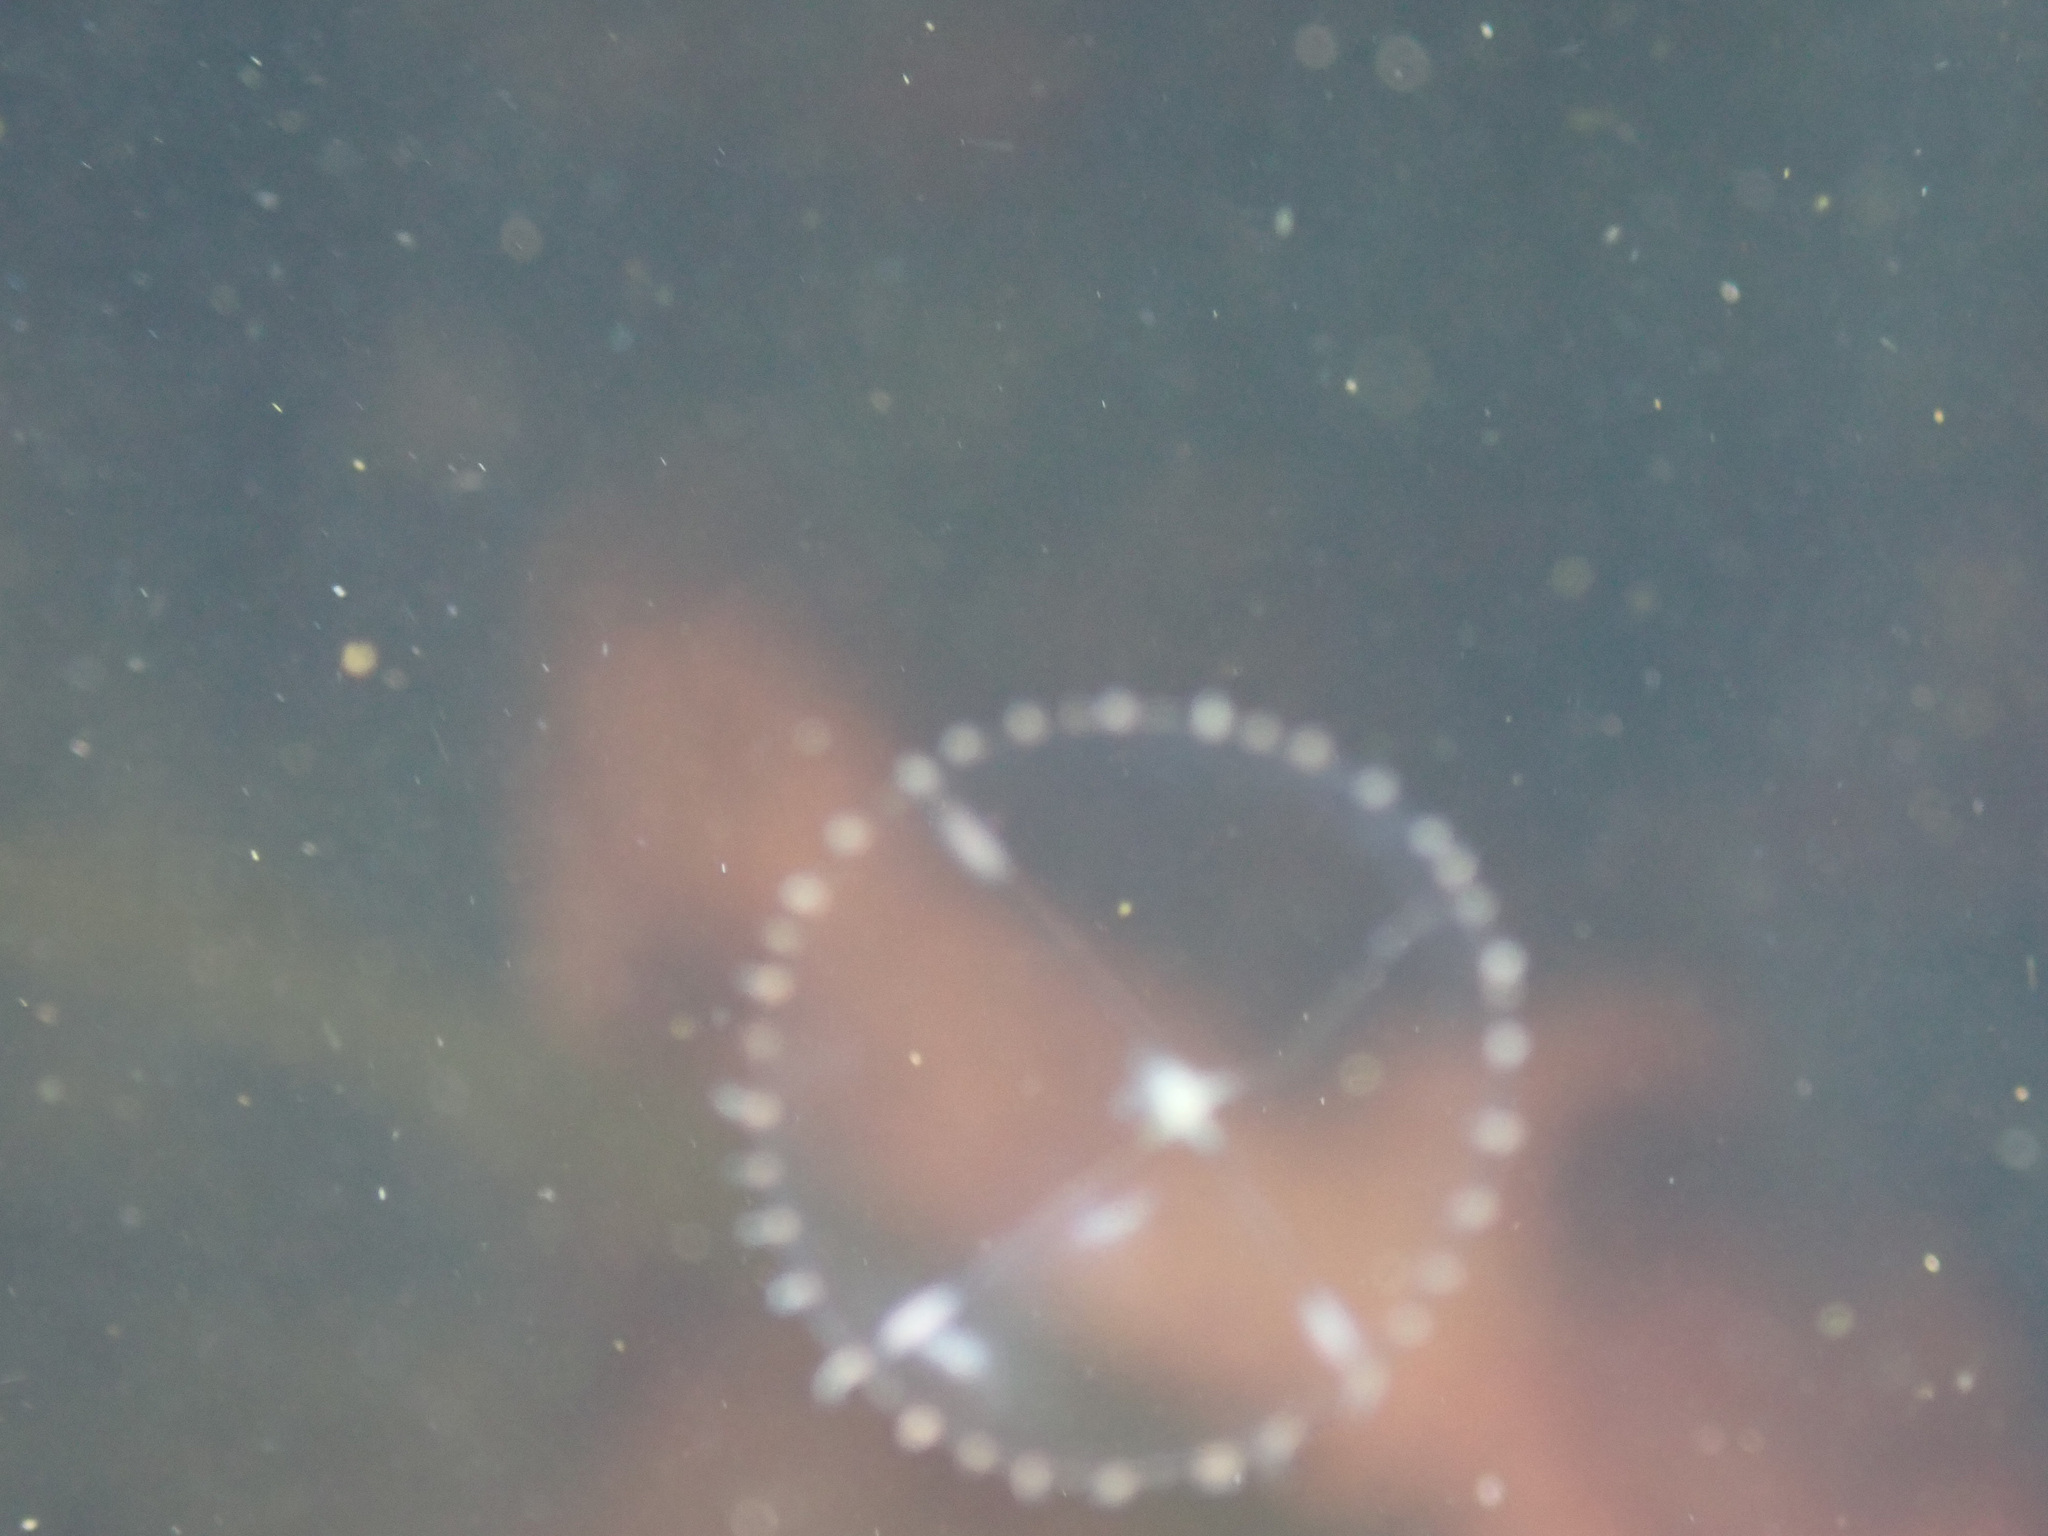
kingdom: Animalia
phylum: Cnidaria
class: Hydrozoa
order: Leptothecata
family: Campanulariidae
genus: Clytia
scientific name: Clytia gregaria
